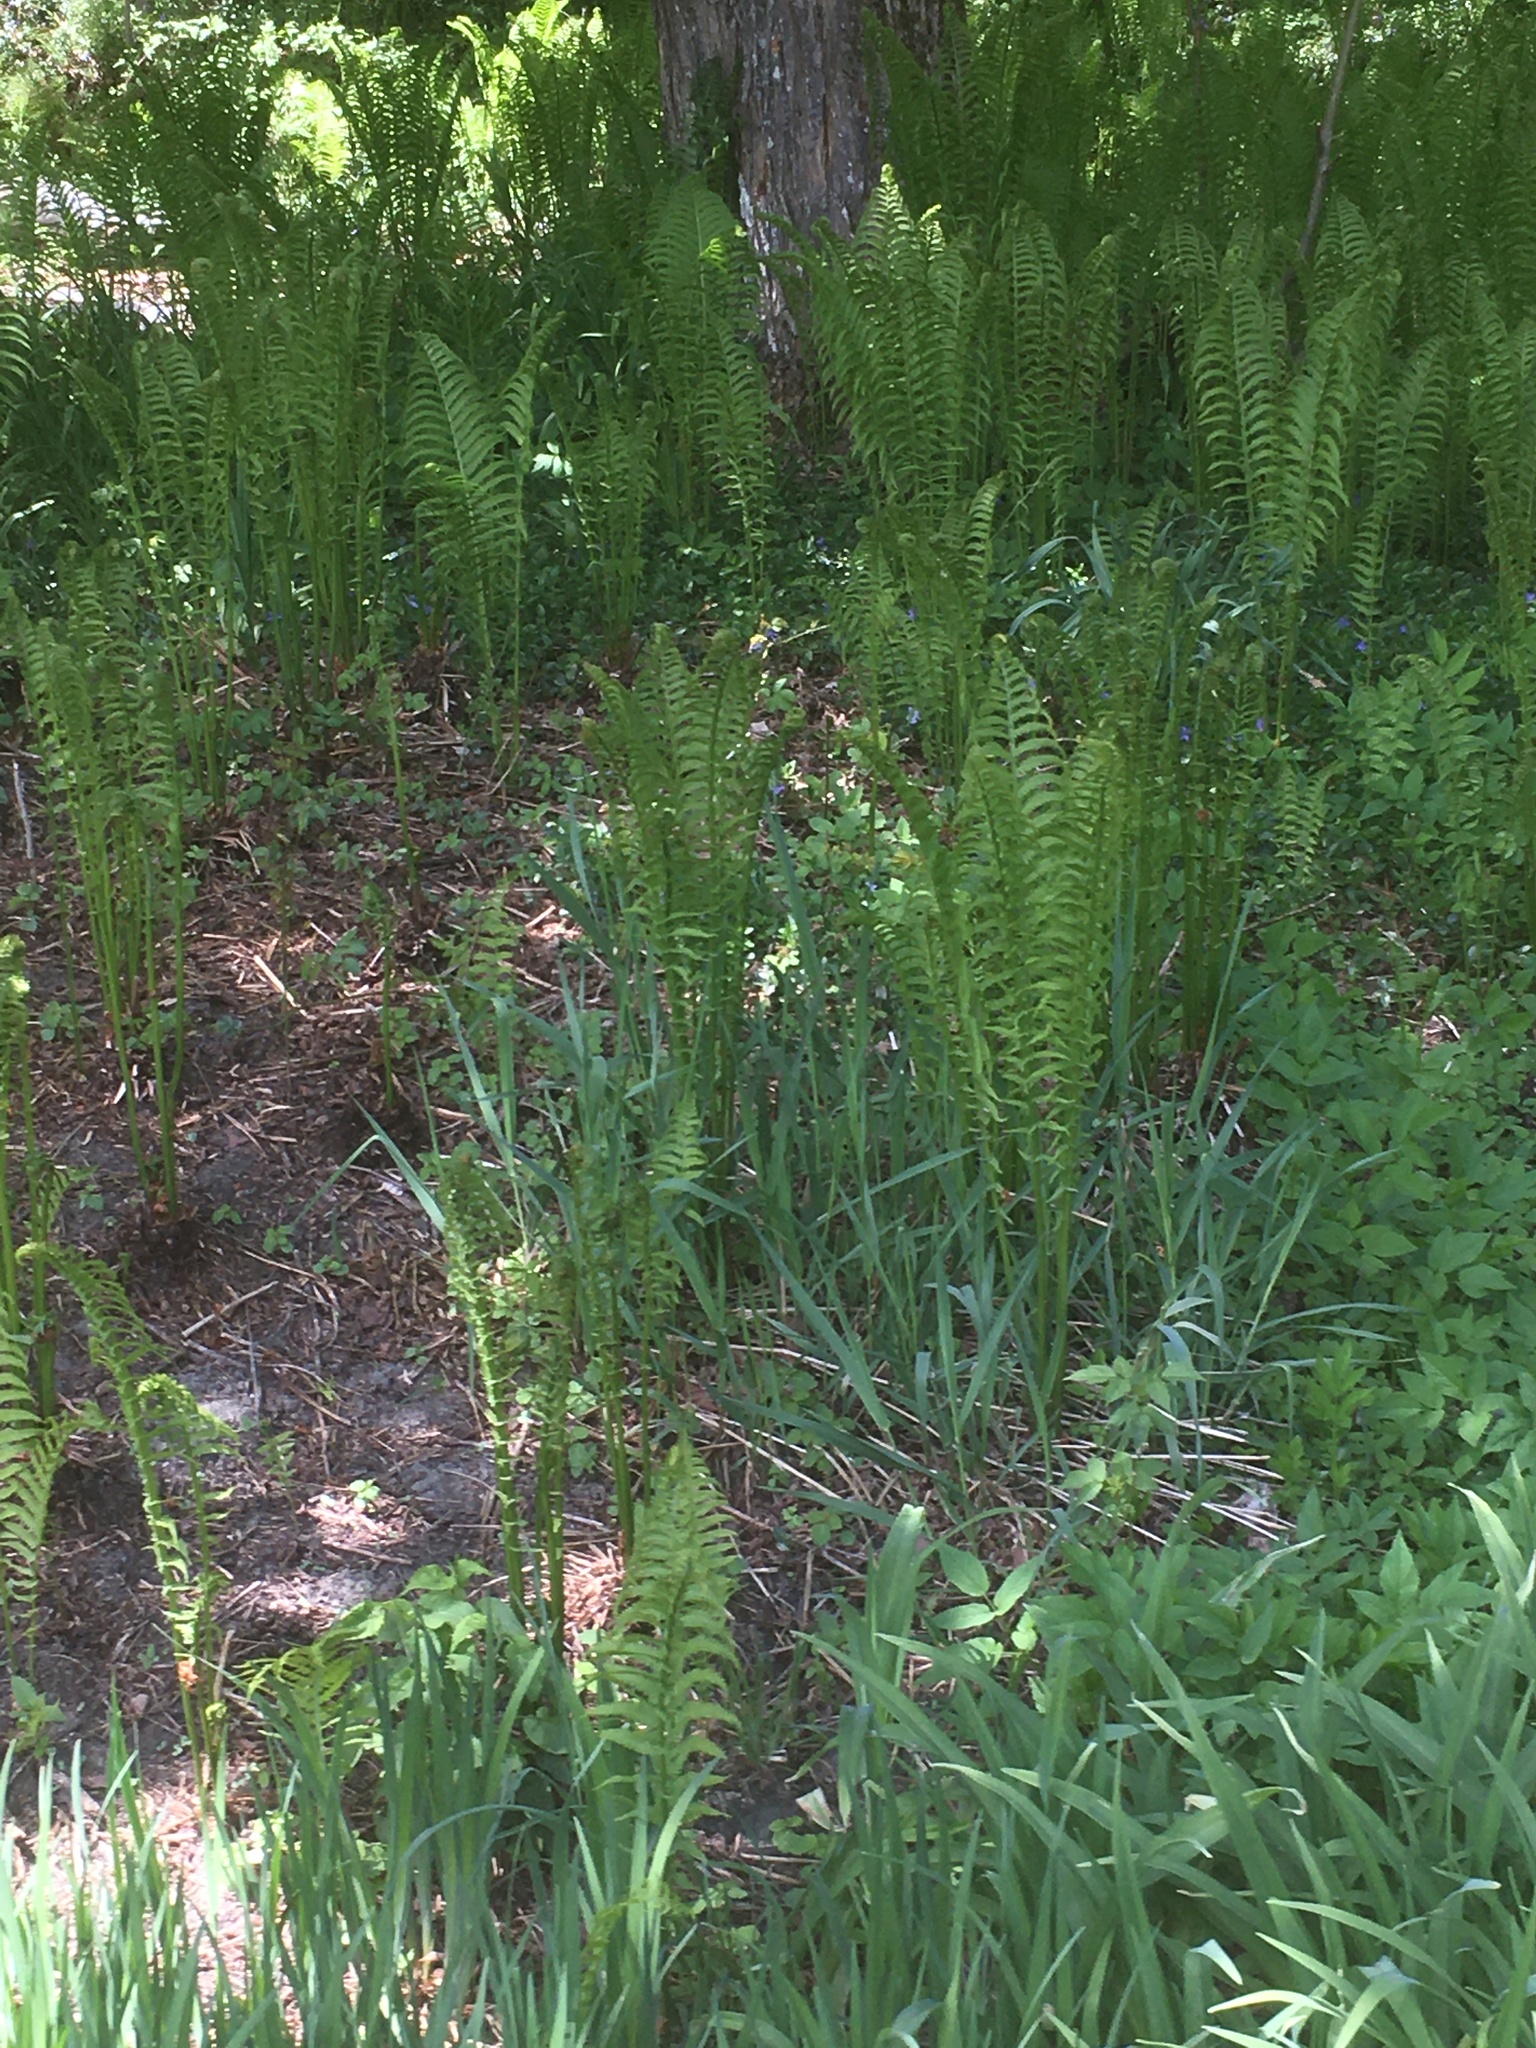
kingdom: Plantae
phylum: Tracheophyta
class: Polypodiopsida
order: Polypodiales
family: Onocleaceae
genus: Matteuccia
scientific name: Matteuccia struthiopteris
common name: Ostrich fern
